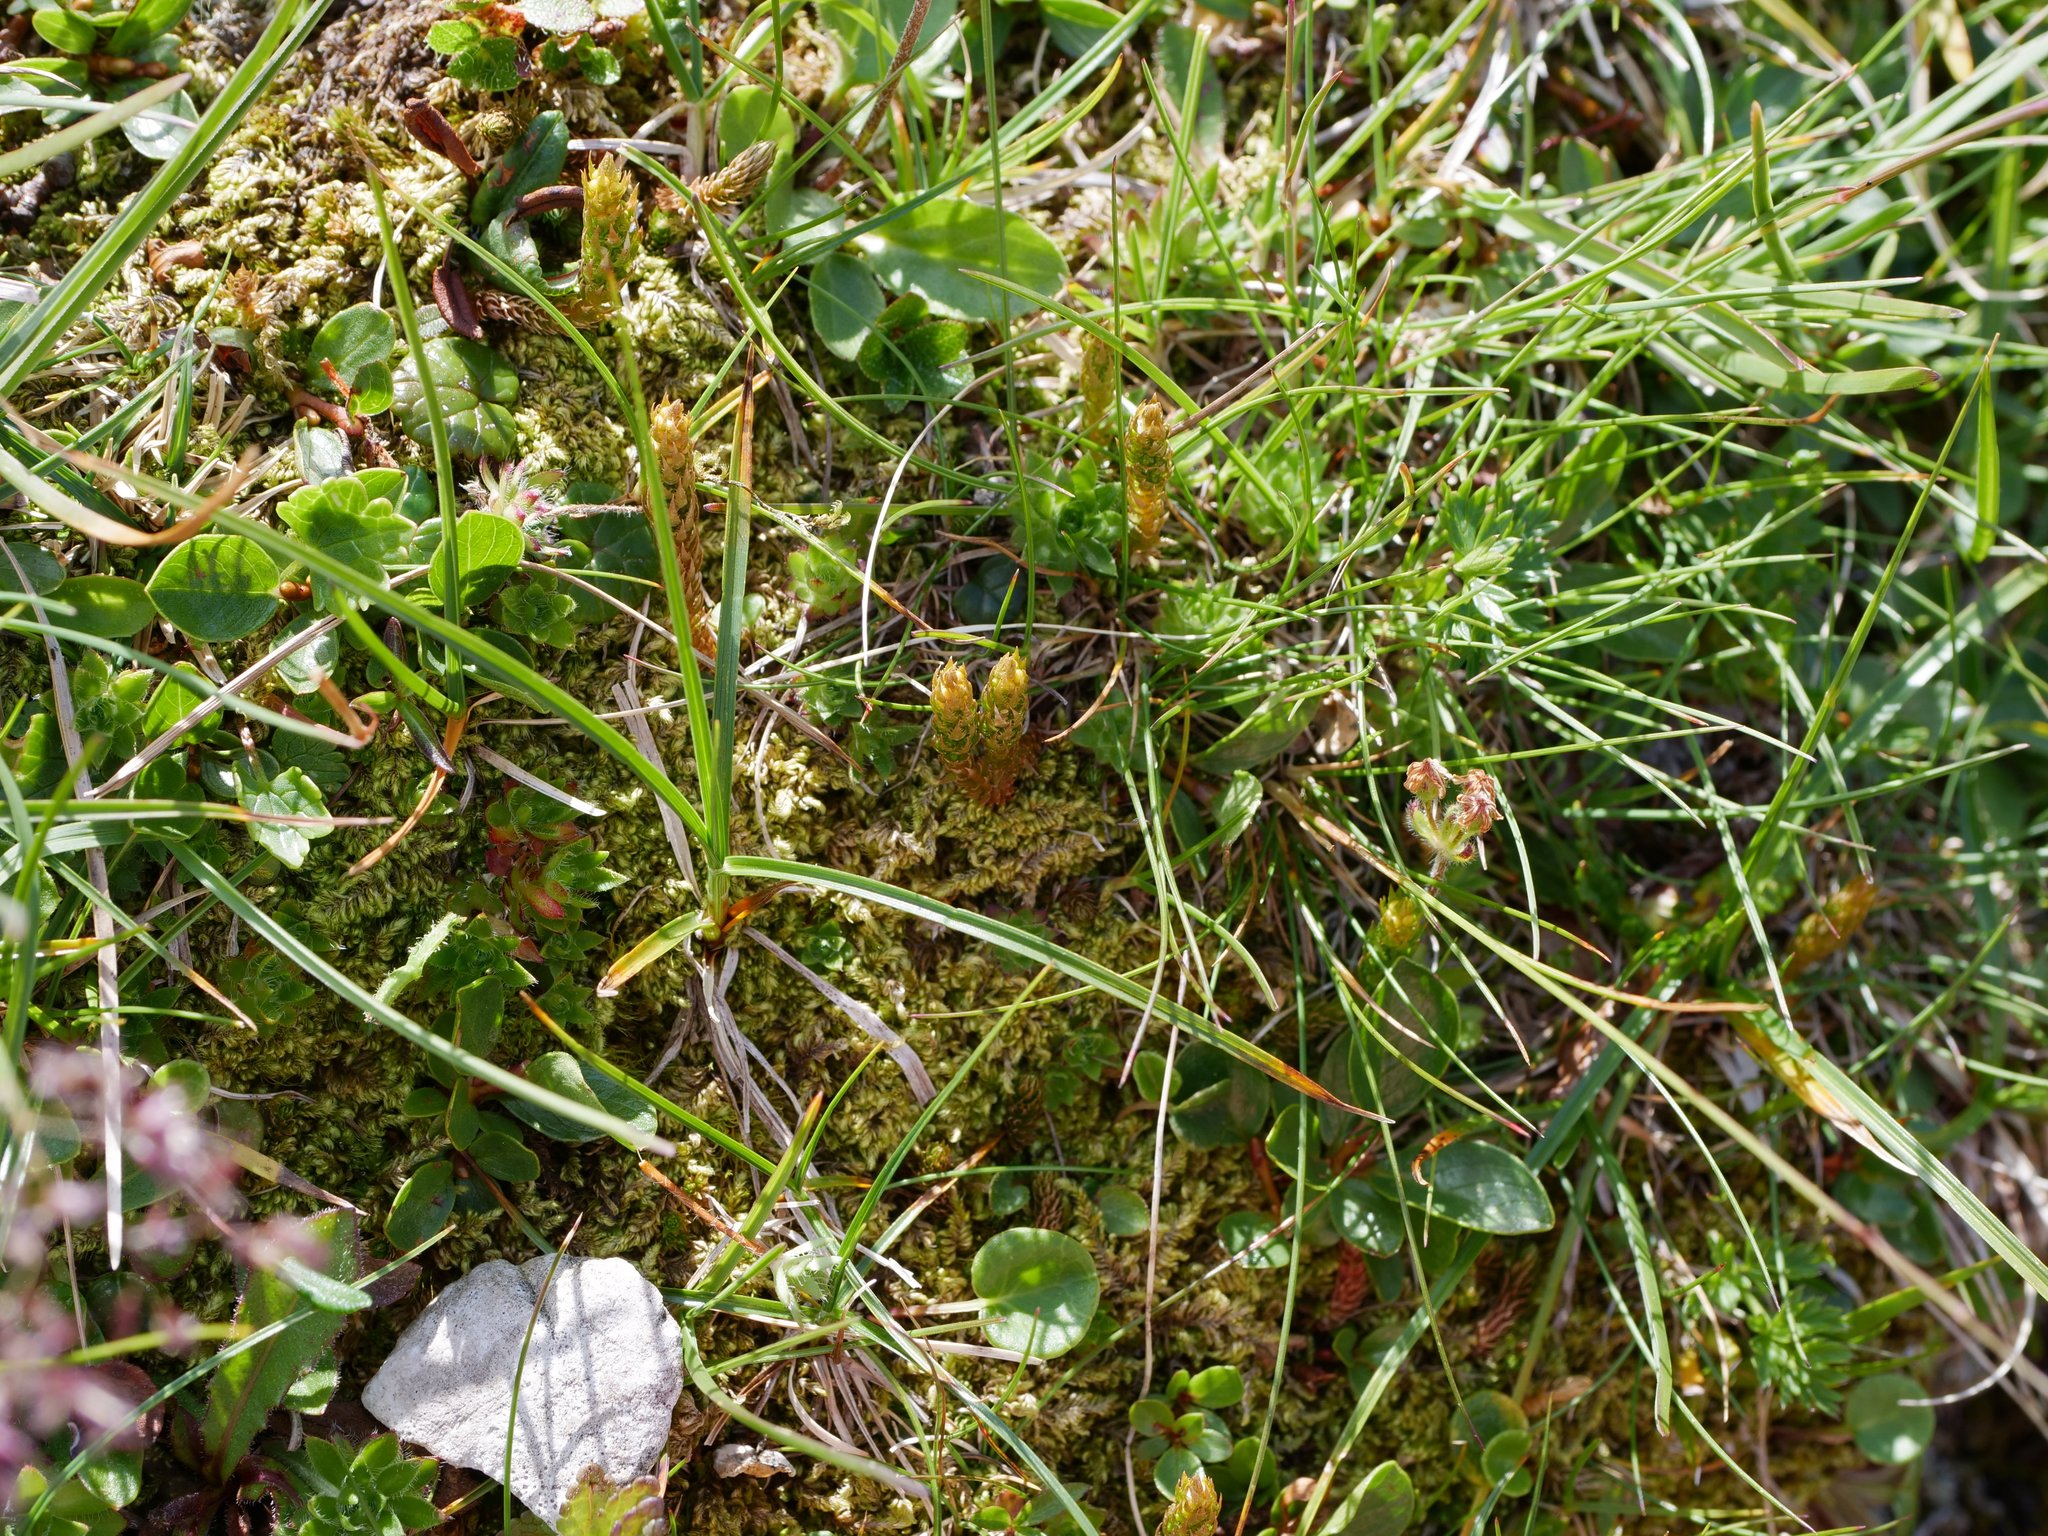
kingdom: Plantae
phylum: Tracheophyta
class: Lycopodiopsida
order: Selaginellales
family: Selaginellaceae
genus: Selaginella
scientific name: Selaginella selaginoides
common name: Prickly mountain-moss
